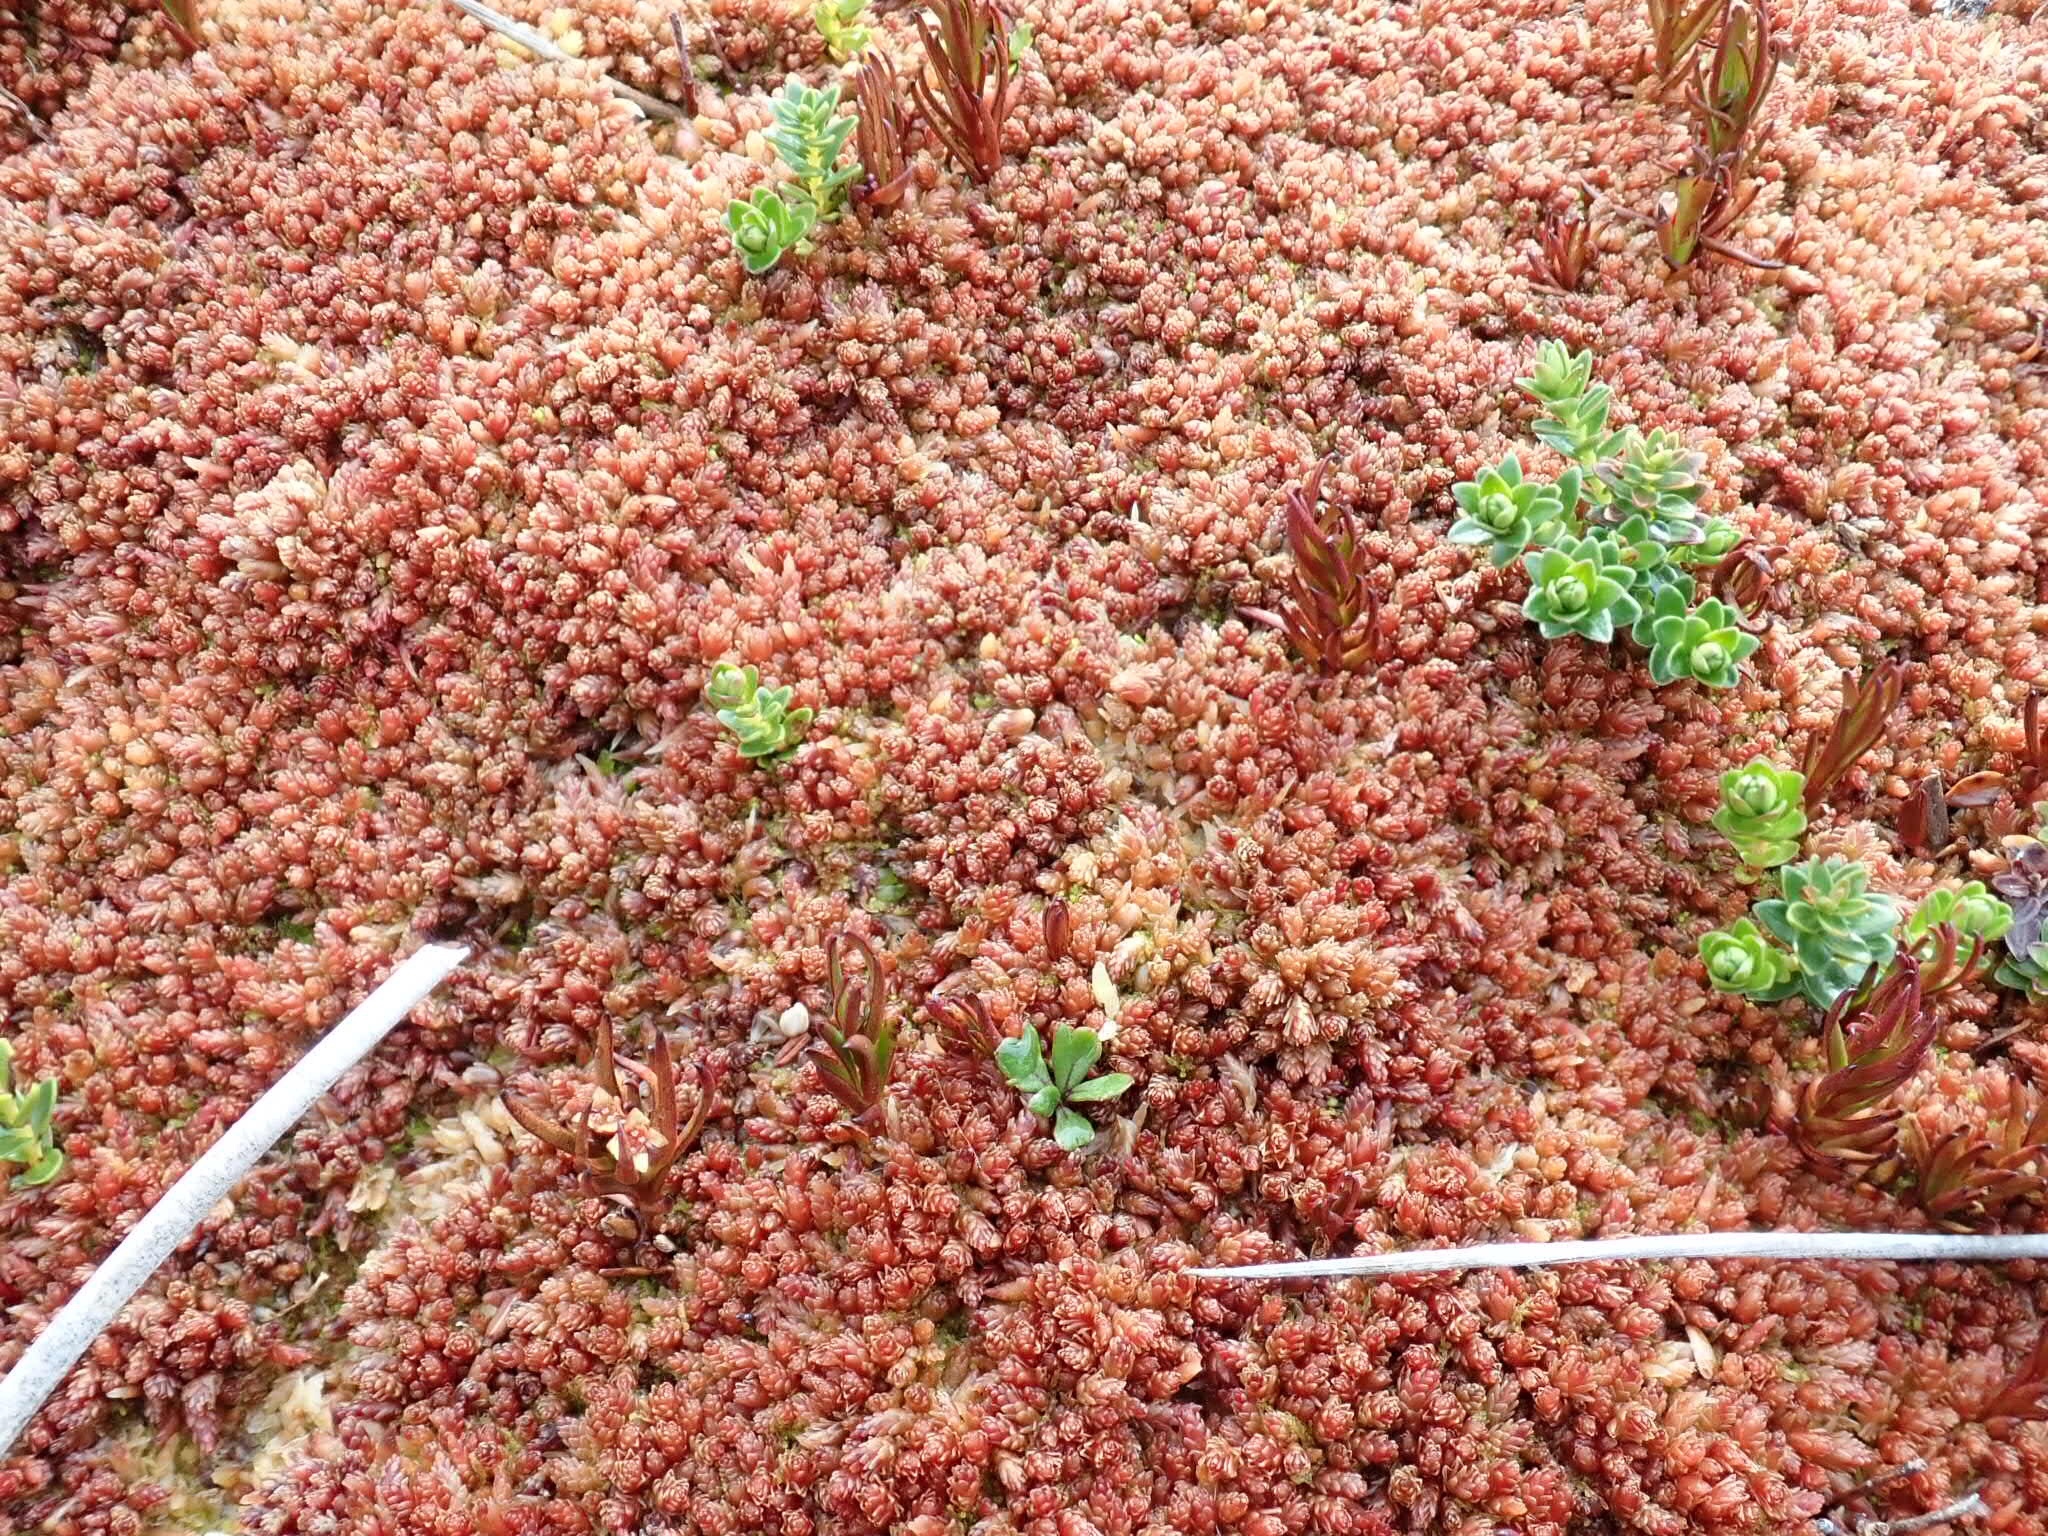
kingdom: Plantae
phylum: Tracheophyta
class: Magnoliopsida
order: Santalales
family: Nanodeaceae
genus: Nanodea
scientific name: Nanodea muscosa
